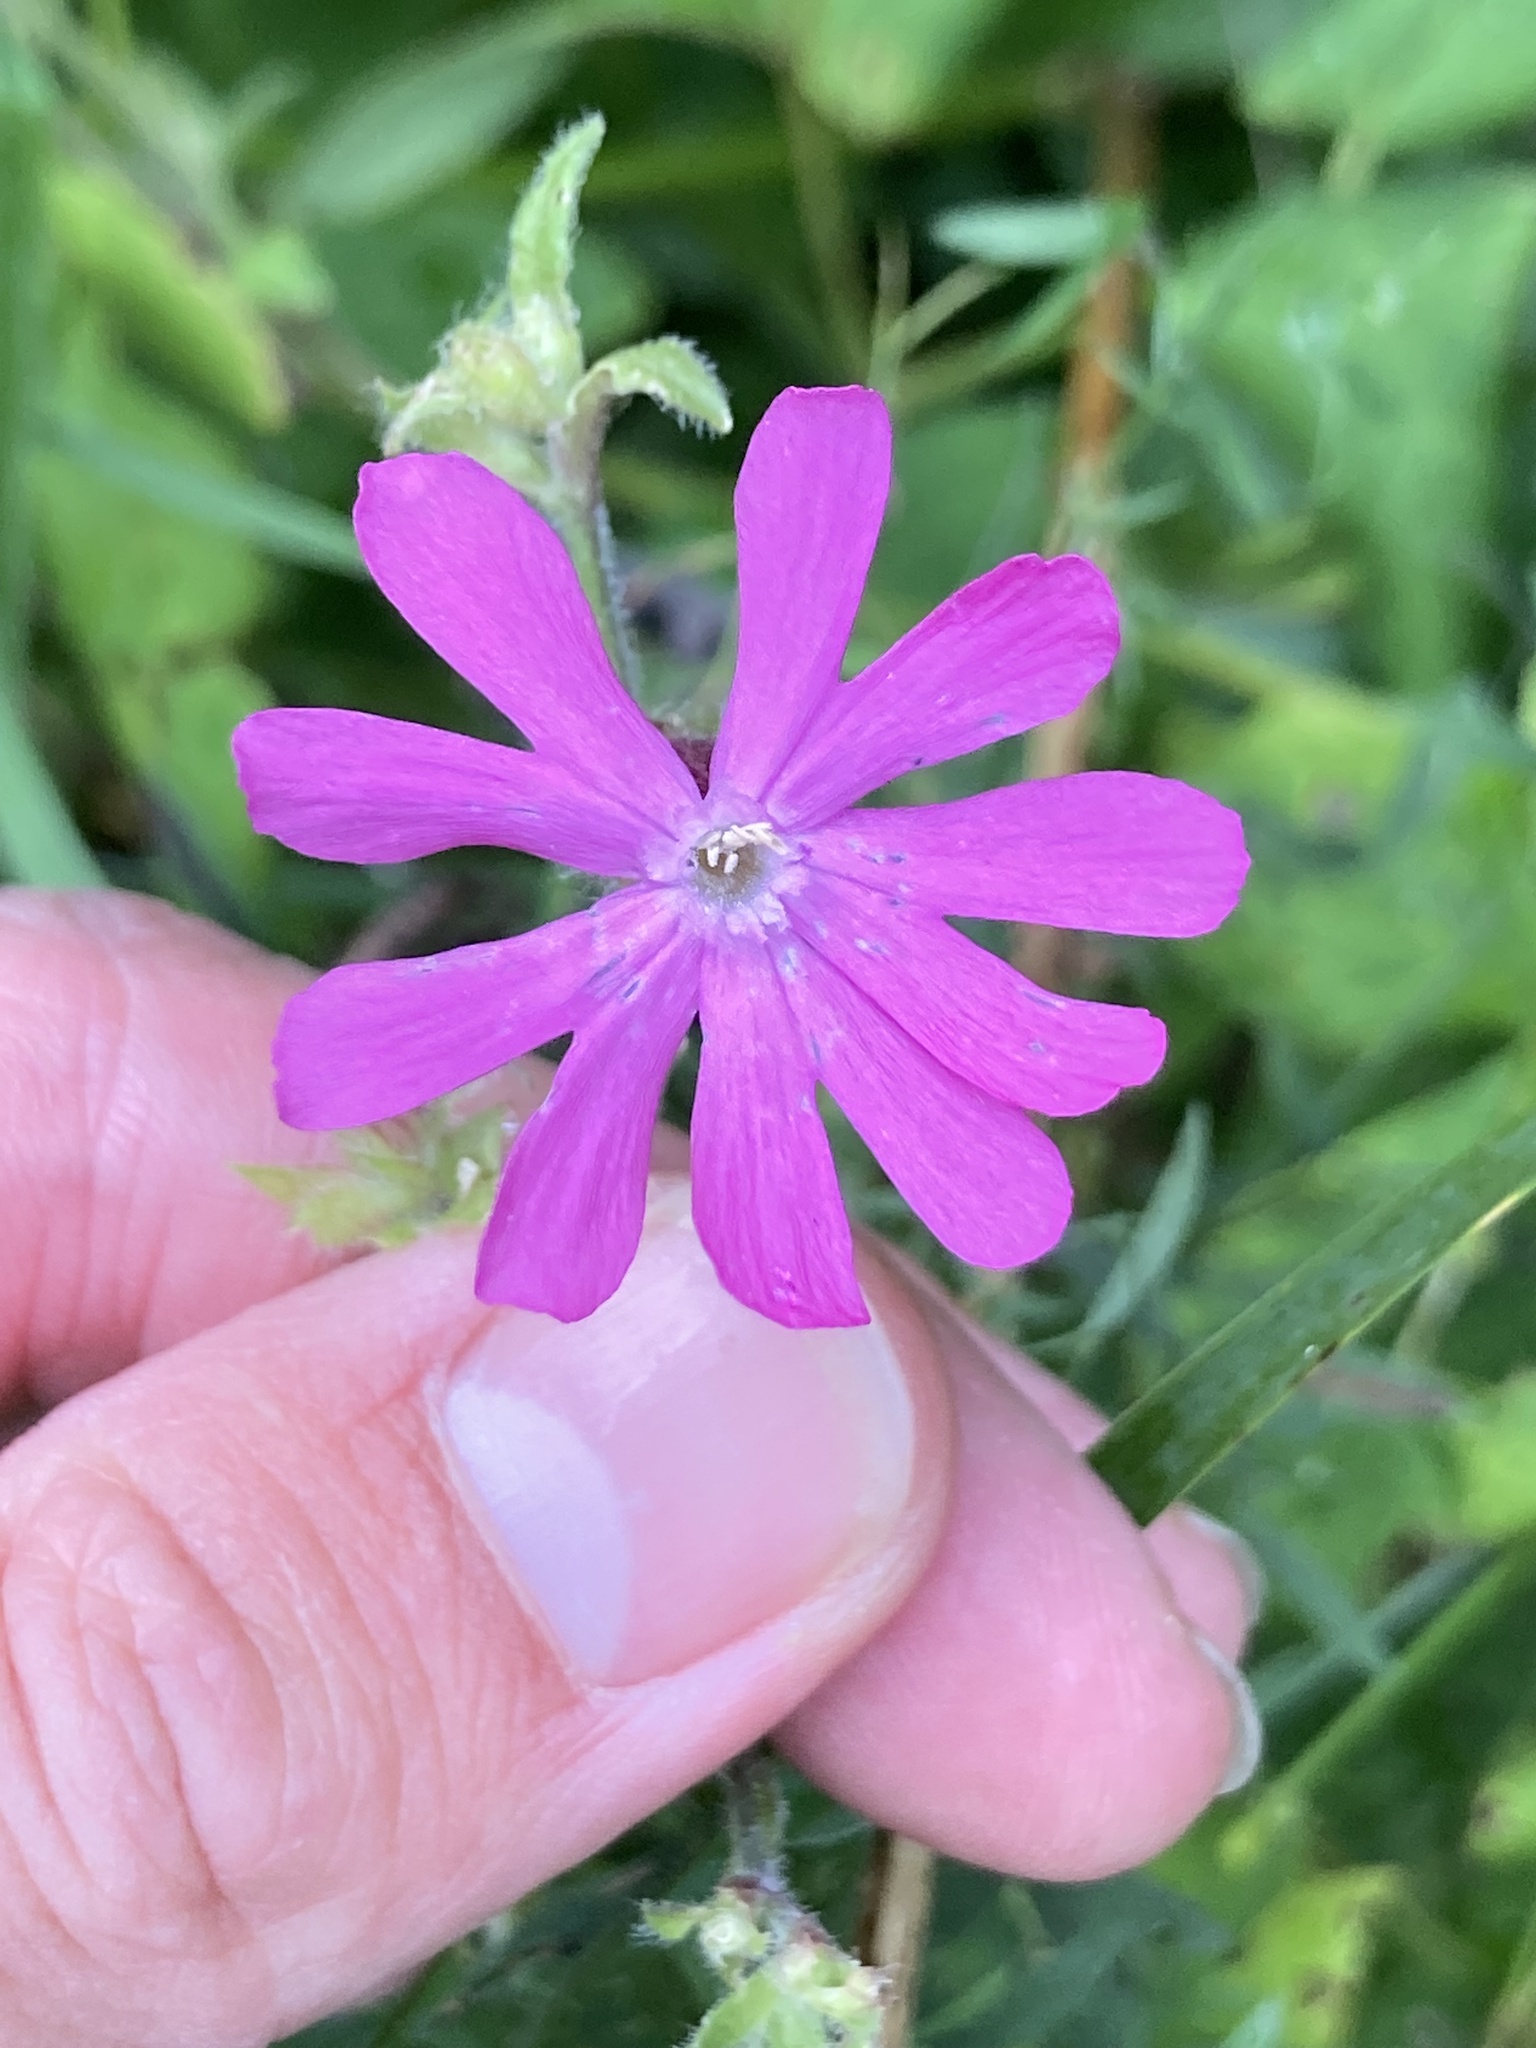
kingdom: Plantae
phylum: Tracheophyta
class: Magnoliopsida
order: Caryophyllales
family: Caryophyllaceae
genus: Silene
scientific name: Silene dioica
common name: Red campion
